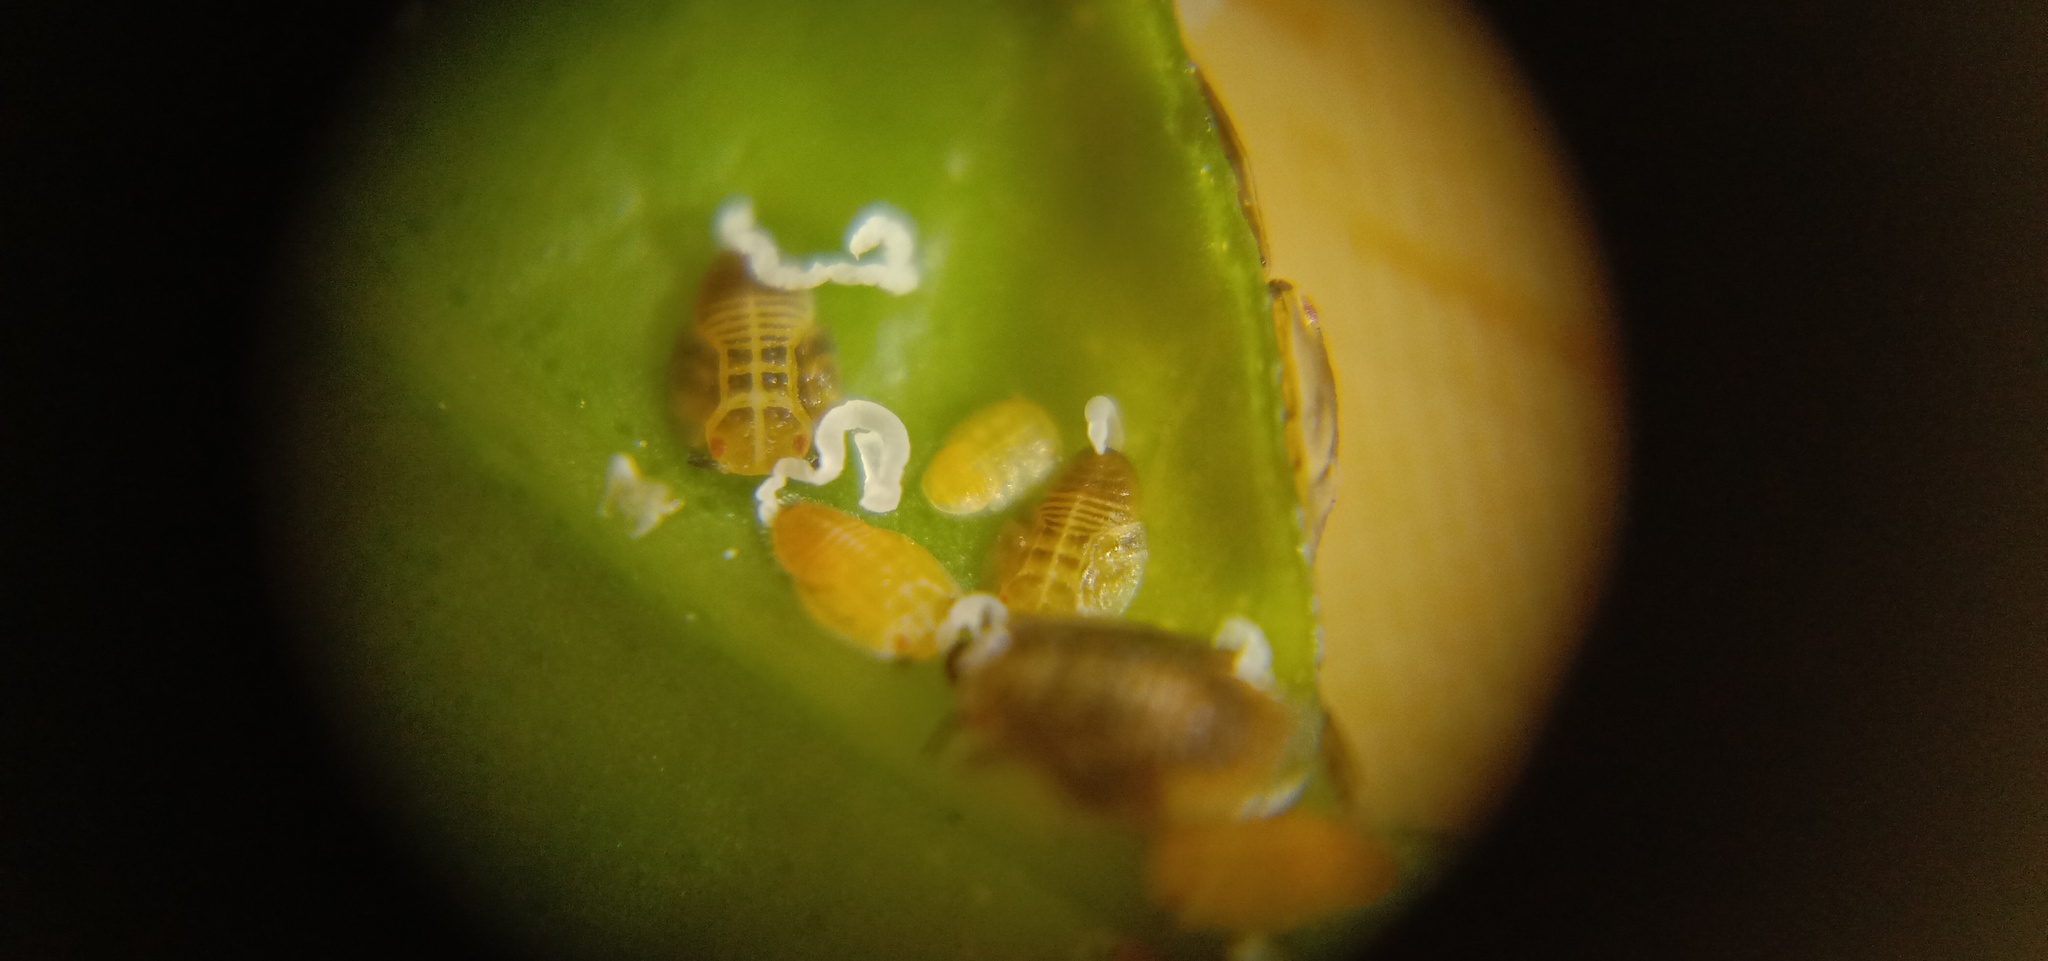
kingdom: Animalia
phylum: Arthropoda
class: Insecta
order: Hemiptera
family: Liviidae
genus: Diaphorina
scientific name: Diaphorina citri
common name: Asian citrus psyllid
